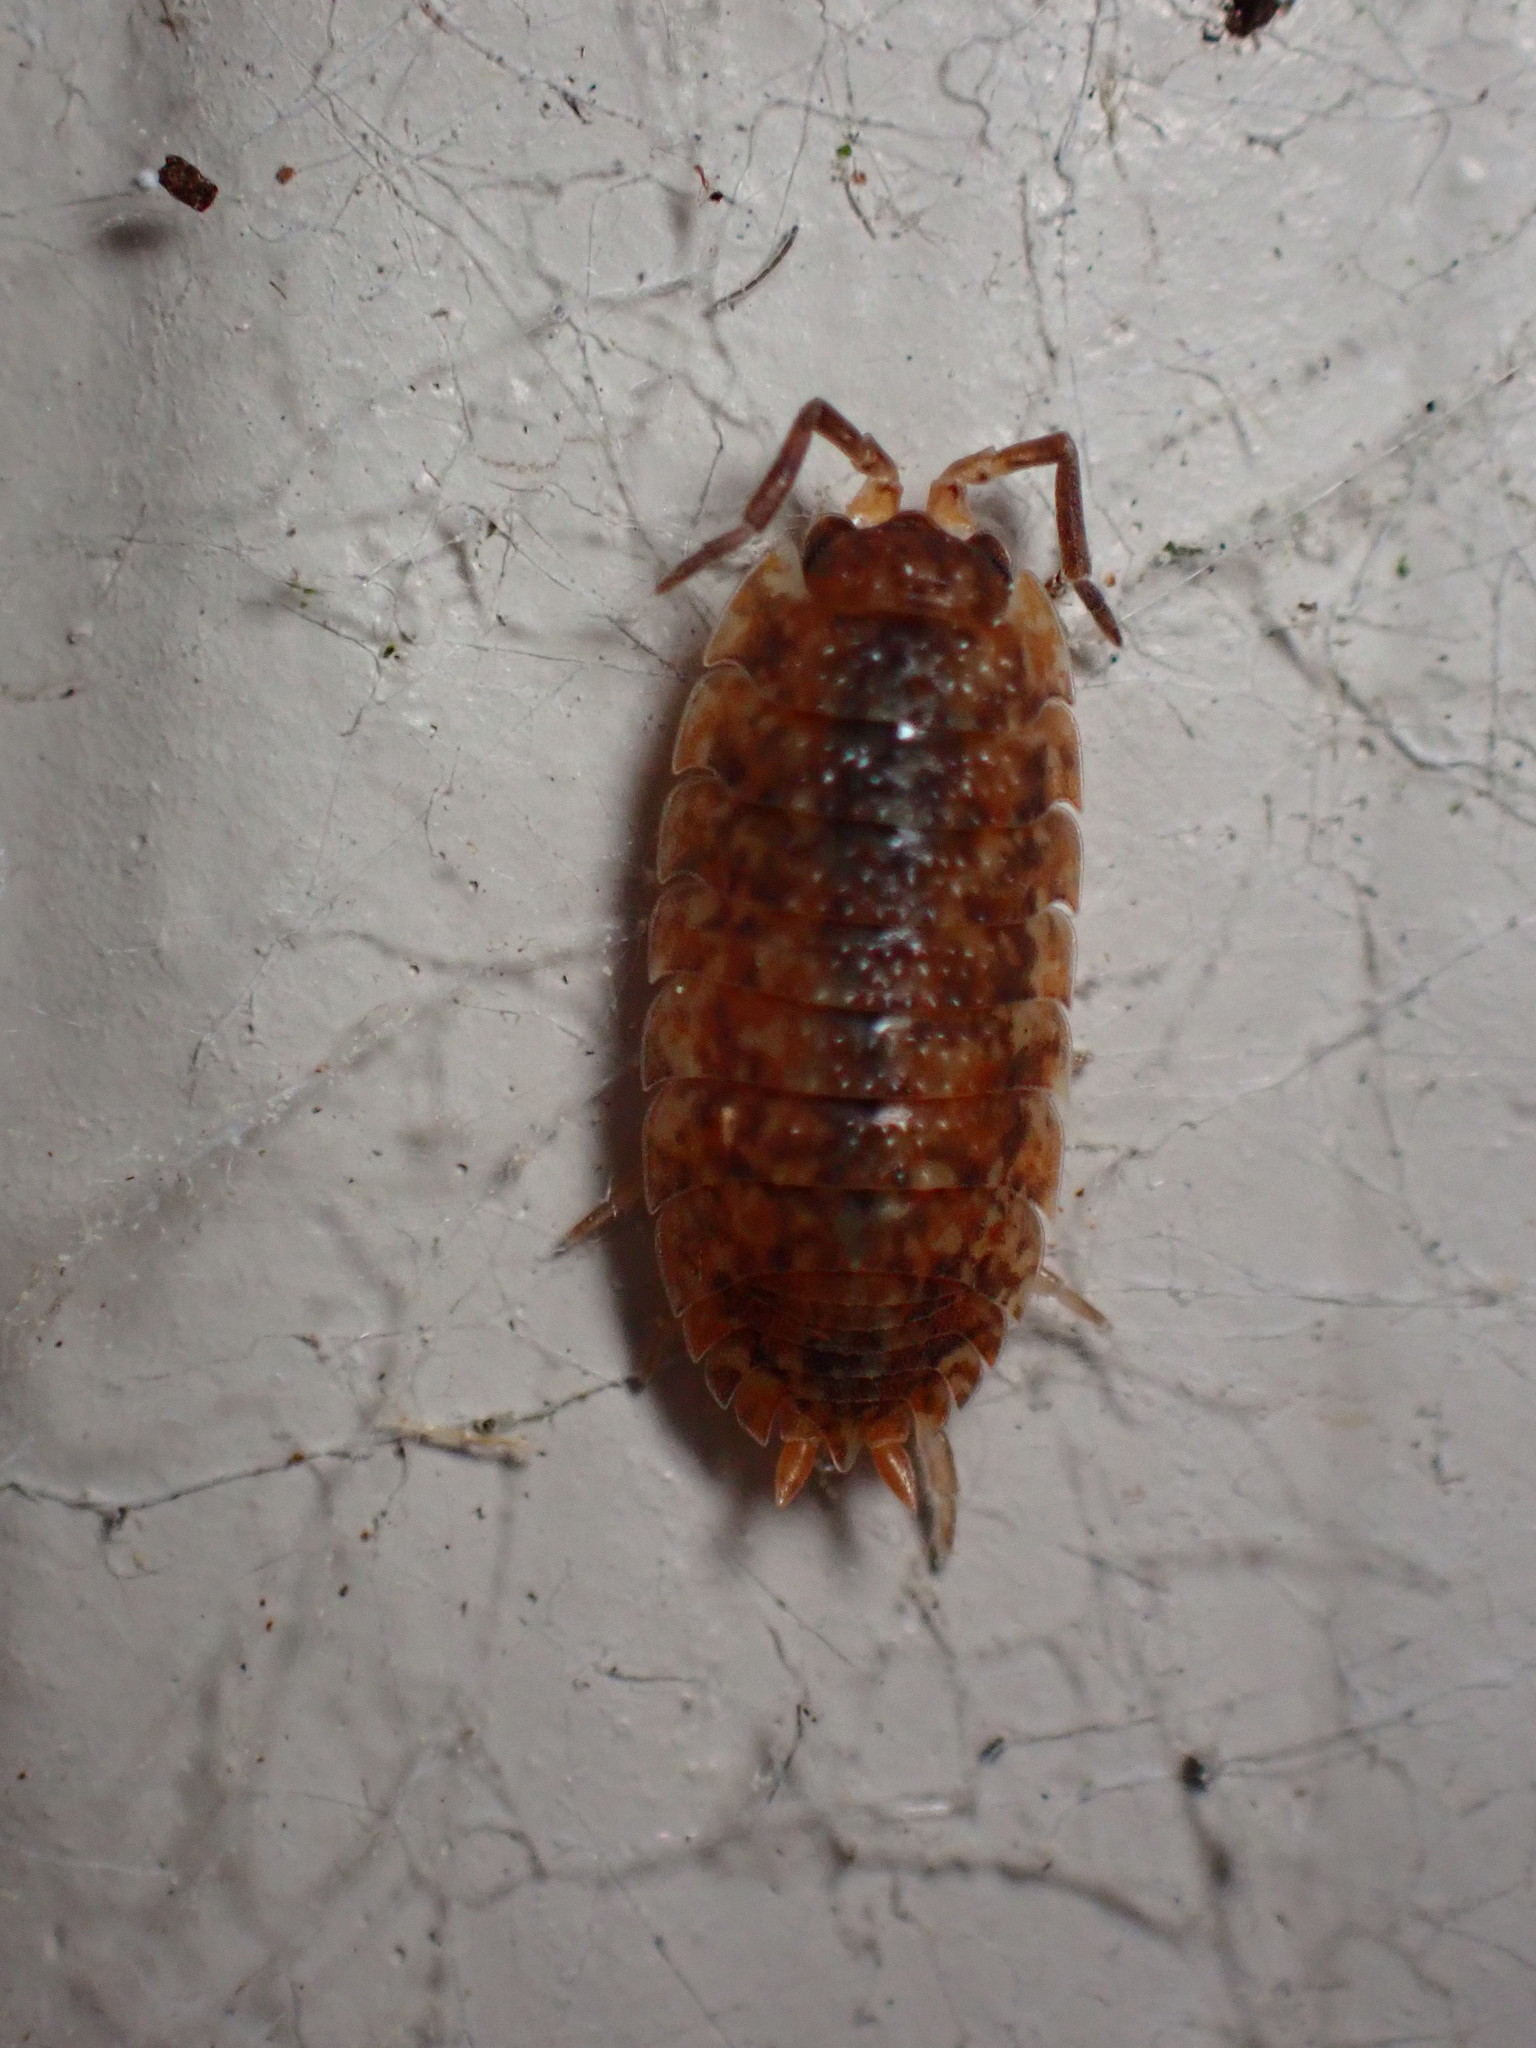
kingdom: Animalia
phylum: Arthropoda
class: Malacostraca
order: Isopoda
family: Porcellionidae
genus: Porcellio
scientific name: Porcellio scaber
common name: Common rough woodlouse
